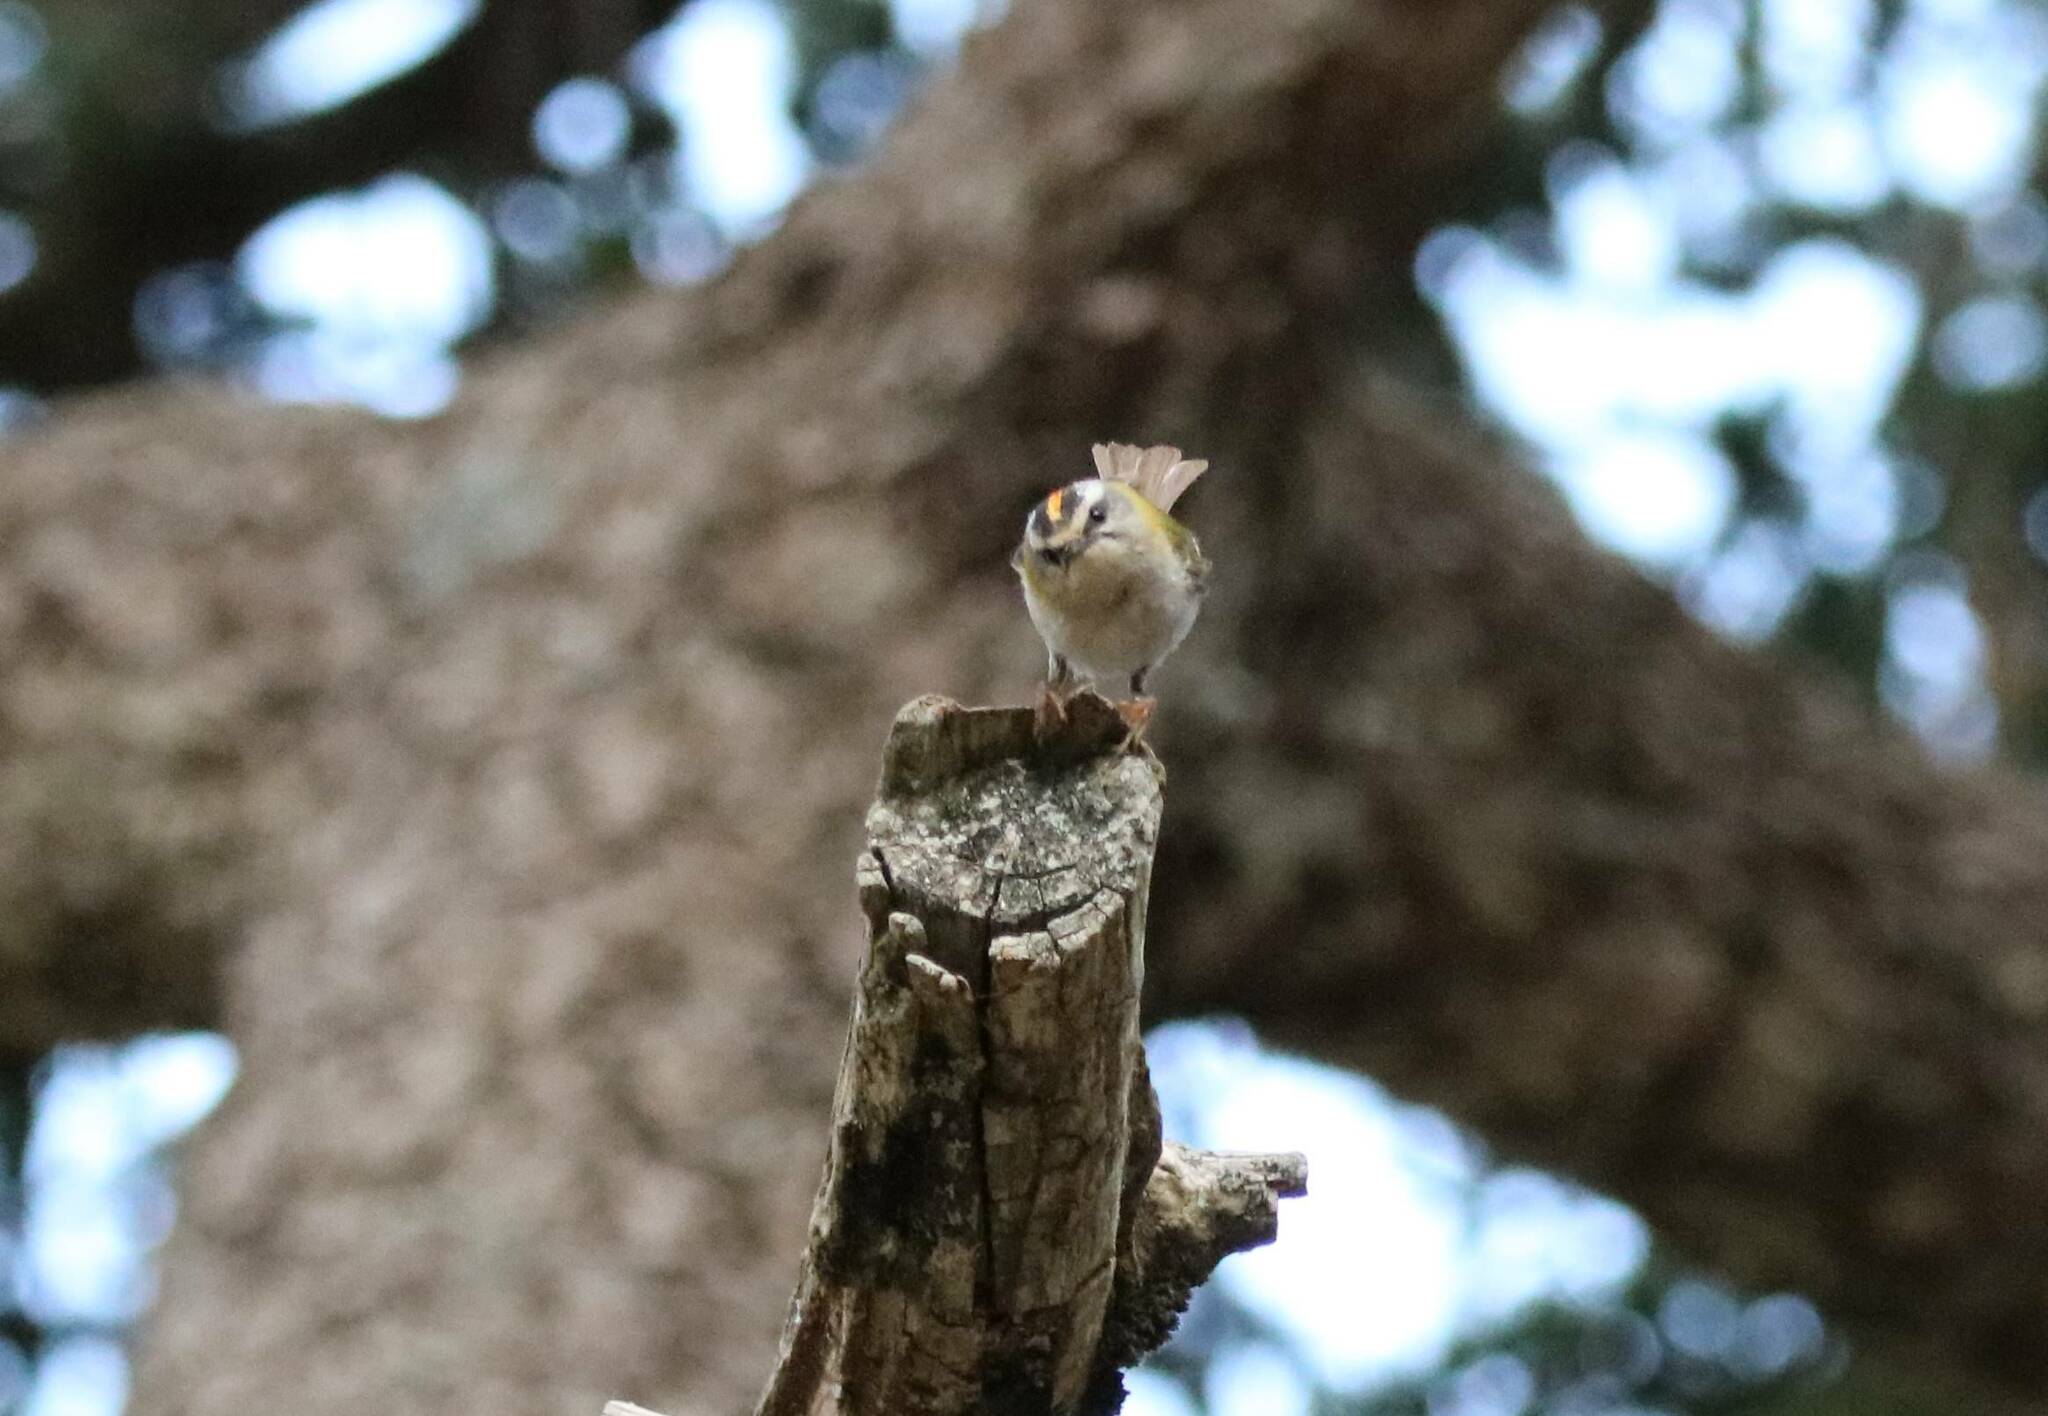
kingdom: Animalia
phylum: Chordata
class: Aves
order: Passeriformes
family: Regulidae
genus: Regulus
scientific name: Regulus ignicapilla
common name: Firecrest
